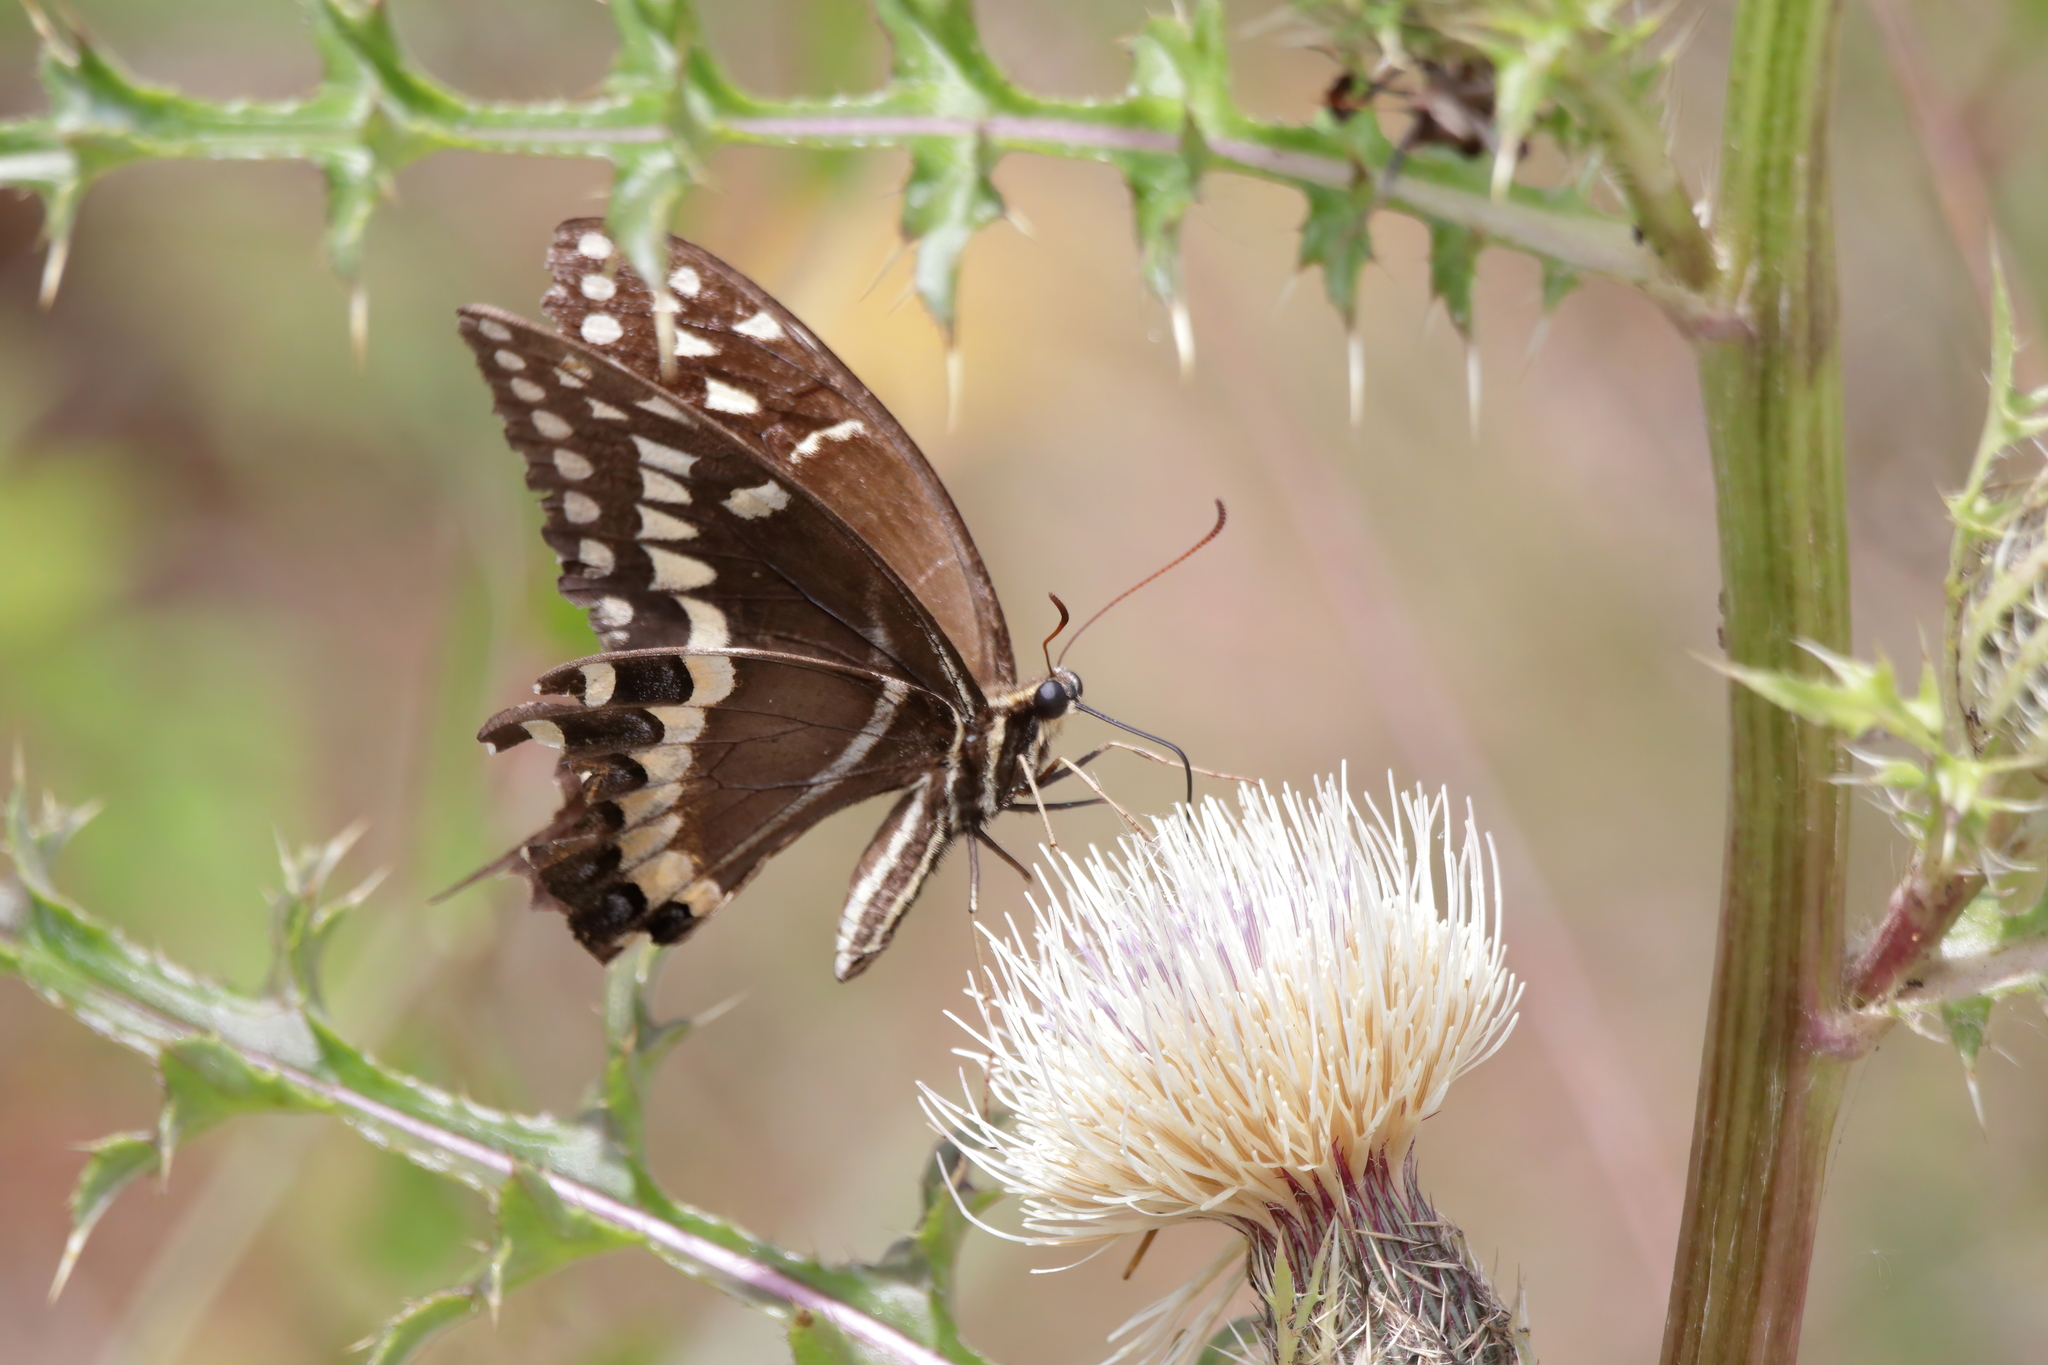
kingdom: Animalia
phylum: Arthropoda
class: Insecta
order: Lepidoptera
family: Papilionidae
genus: Papilio
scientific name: Papilio palamedes
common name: Palamedes swallowtail
